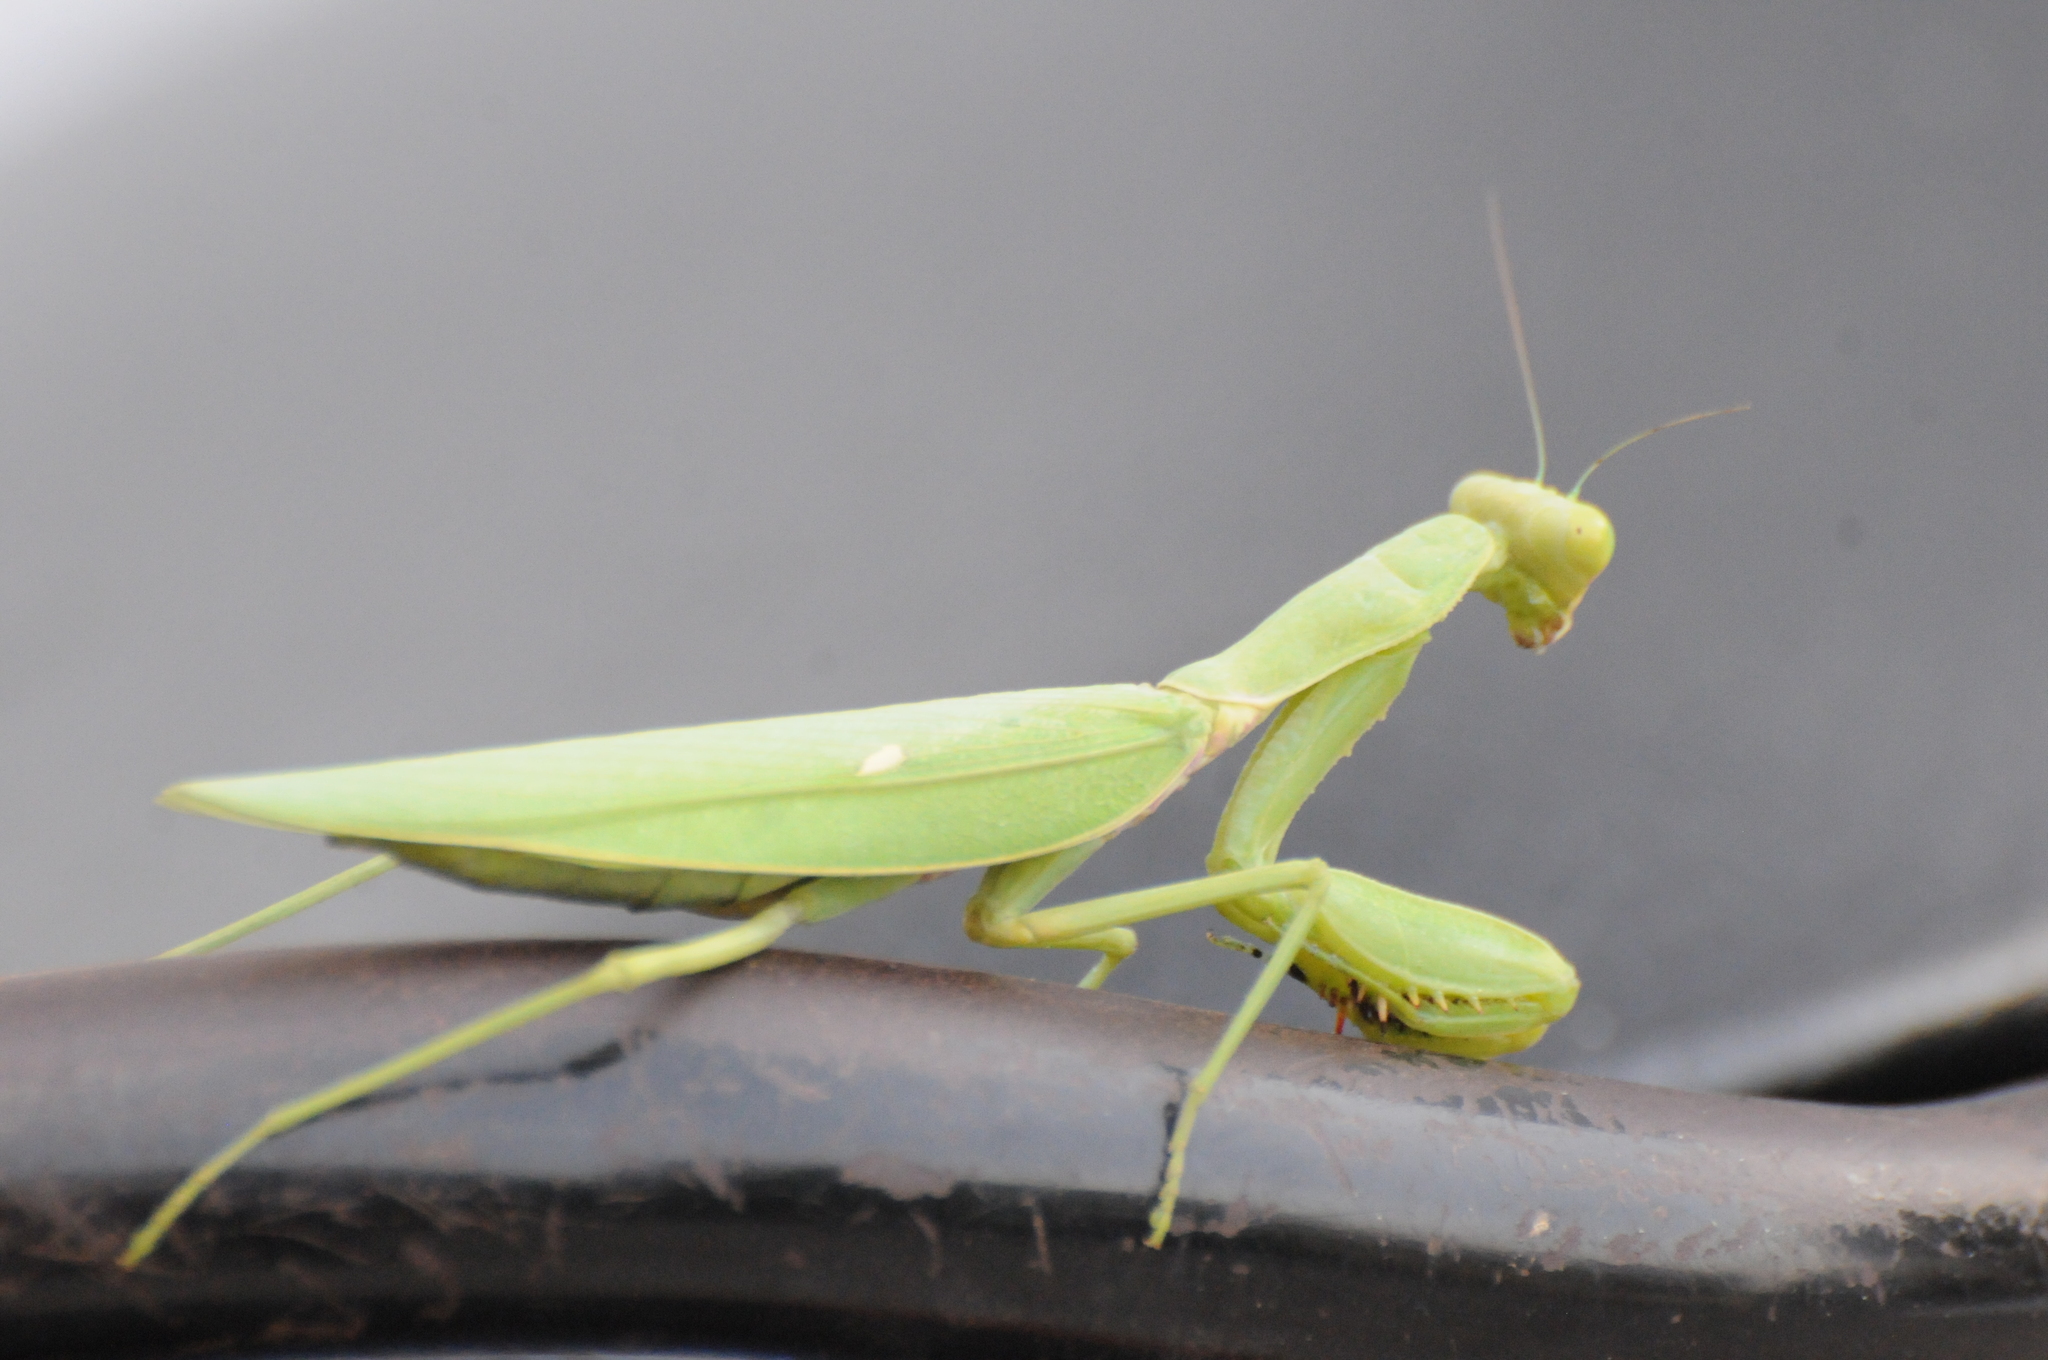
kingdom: Animalia
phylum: Arthropoda
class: Insecta
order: Mantodea
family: Mantidae
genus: Hierodula
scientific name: Hierodula patellifera
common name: Asian mantis
